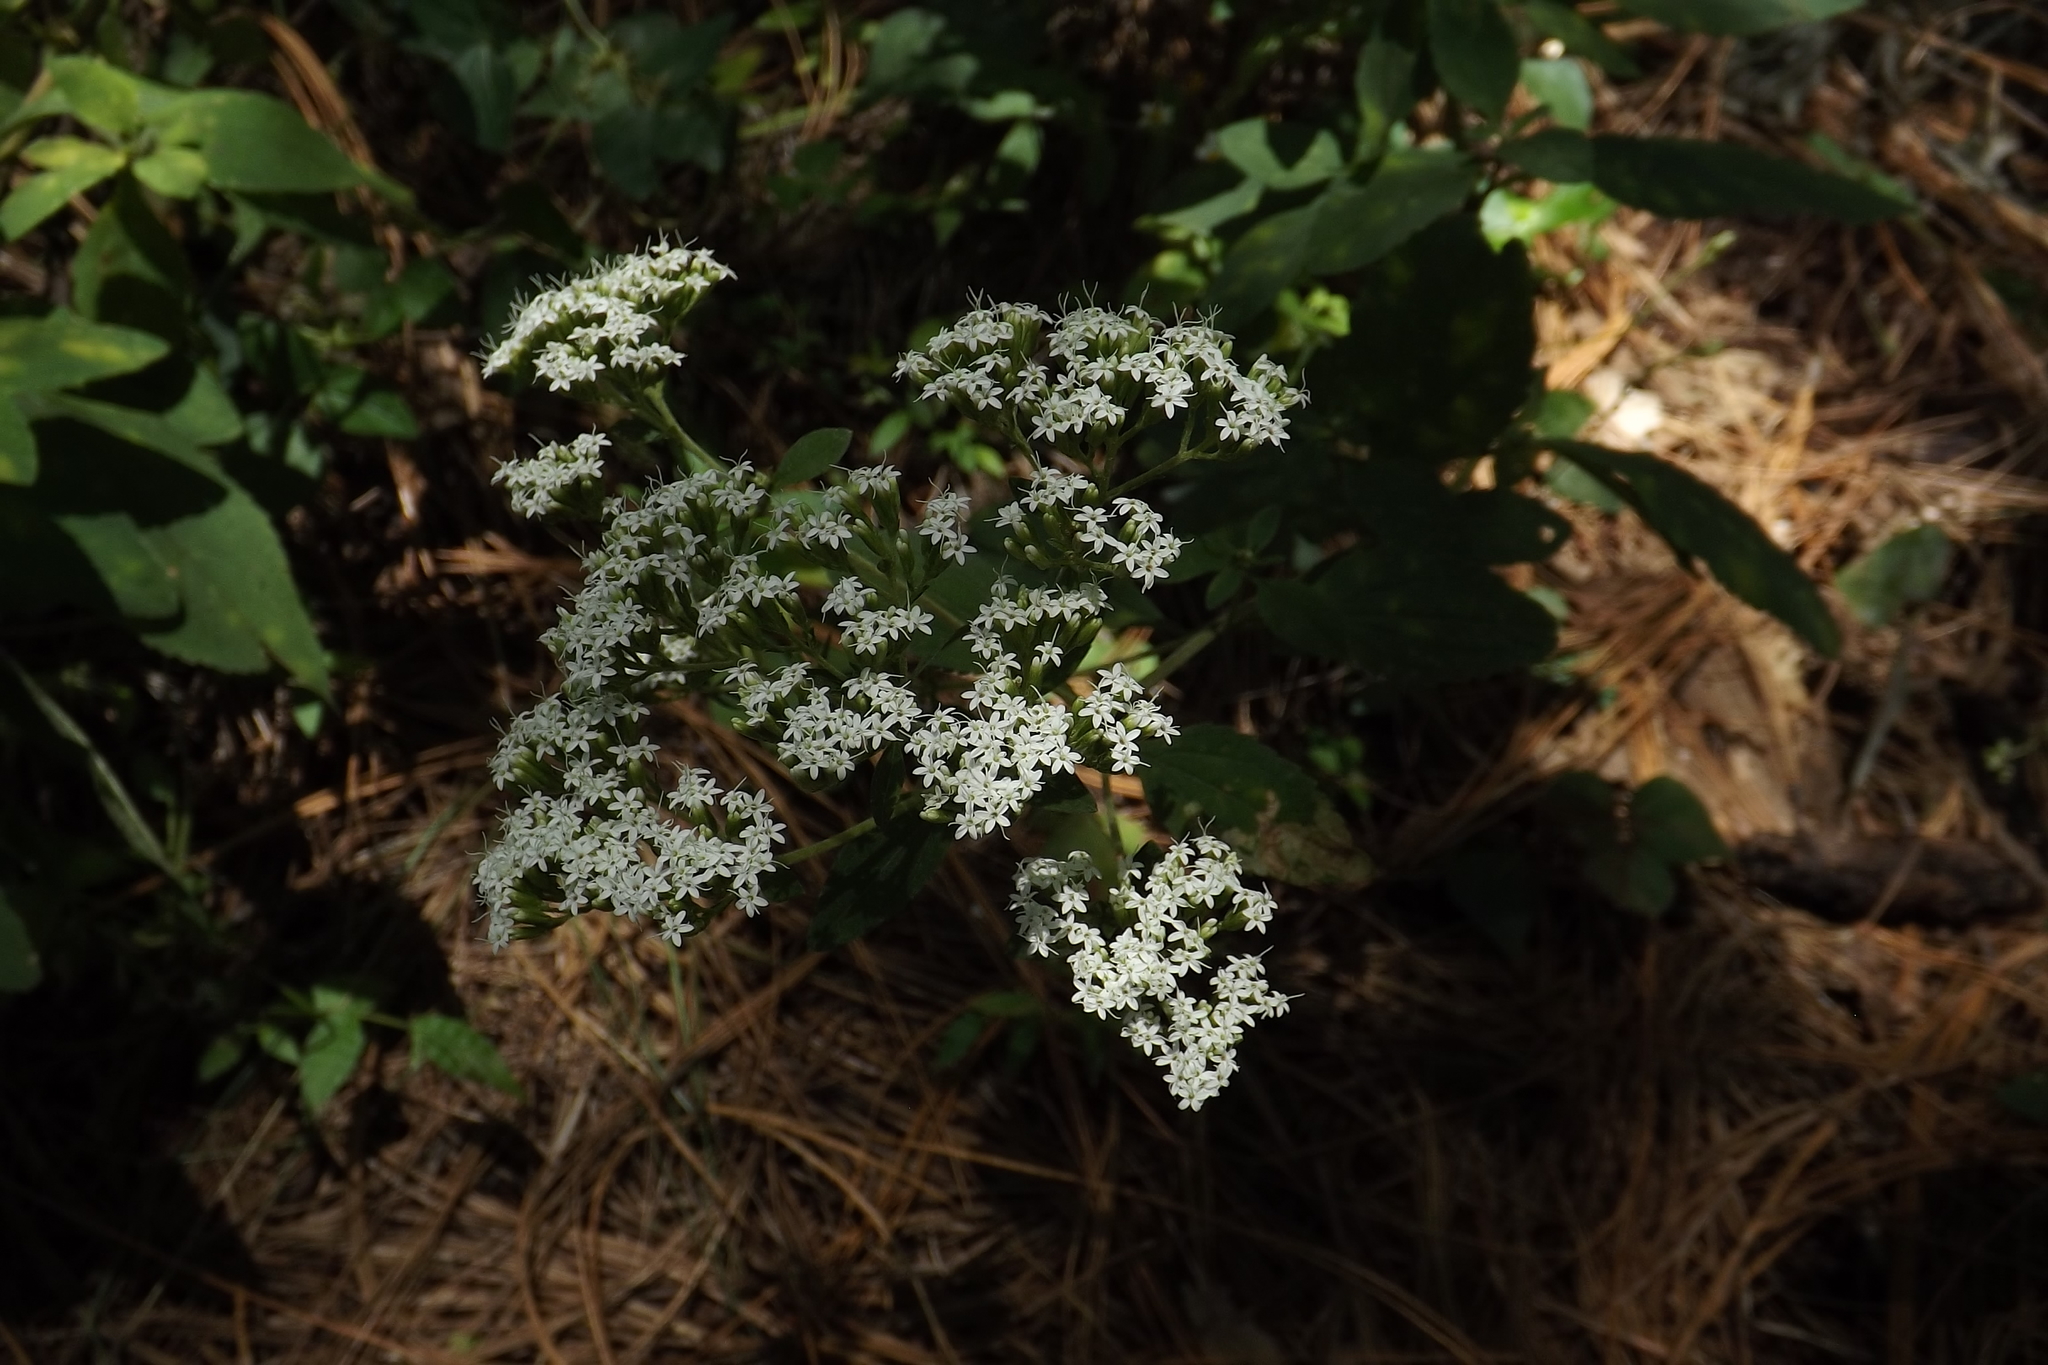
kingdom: Plantae
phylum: Tracheophyta
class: Magnoliopsida
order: Asterales
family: Asteraceae
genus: Stevia
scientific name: Stevia ovata
